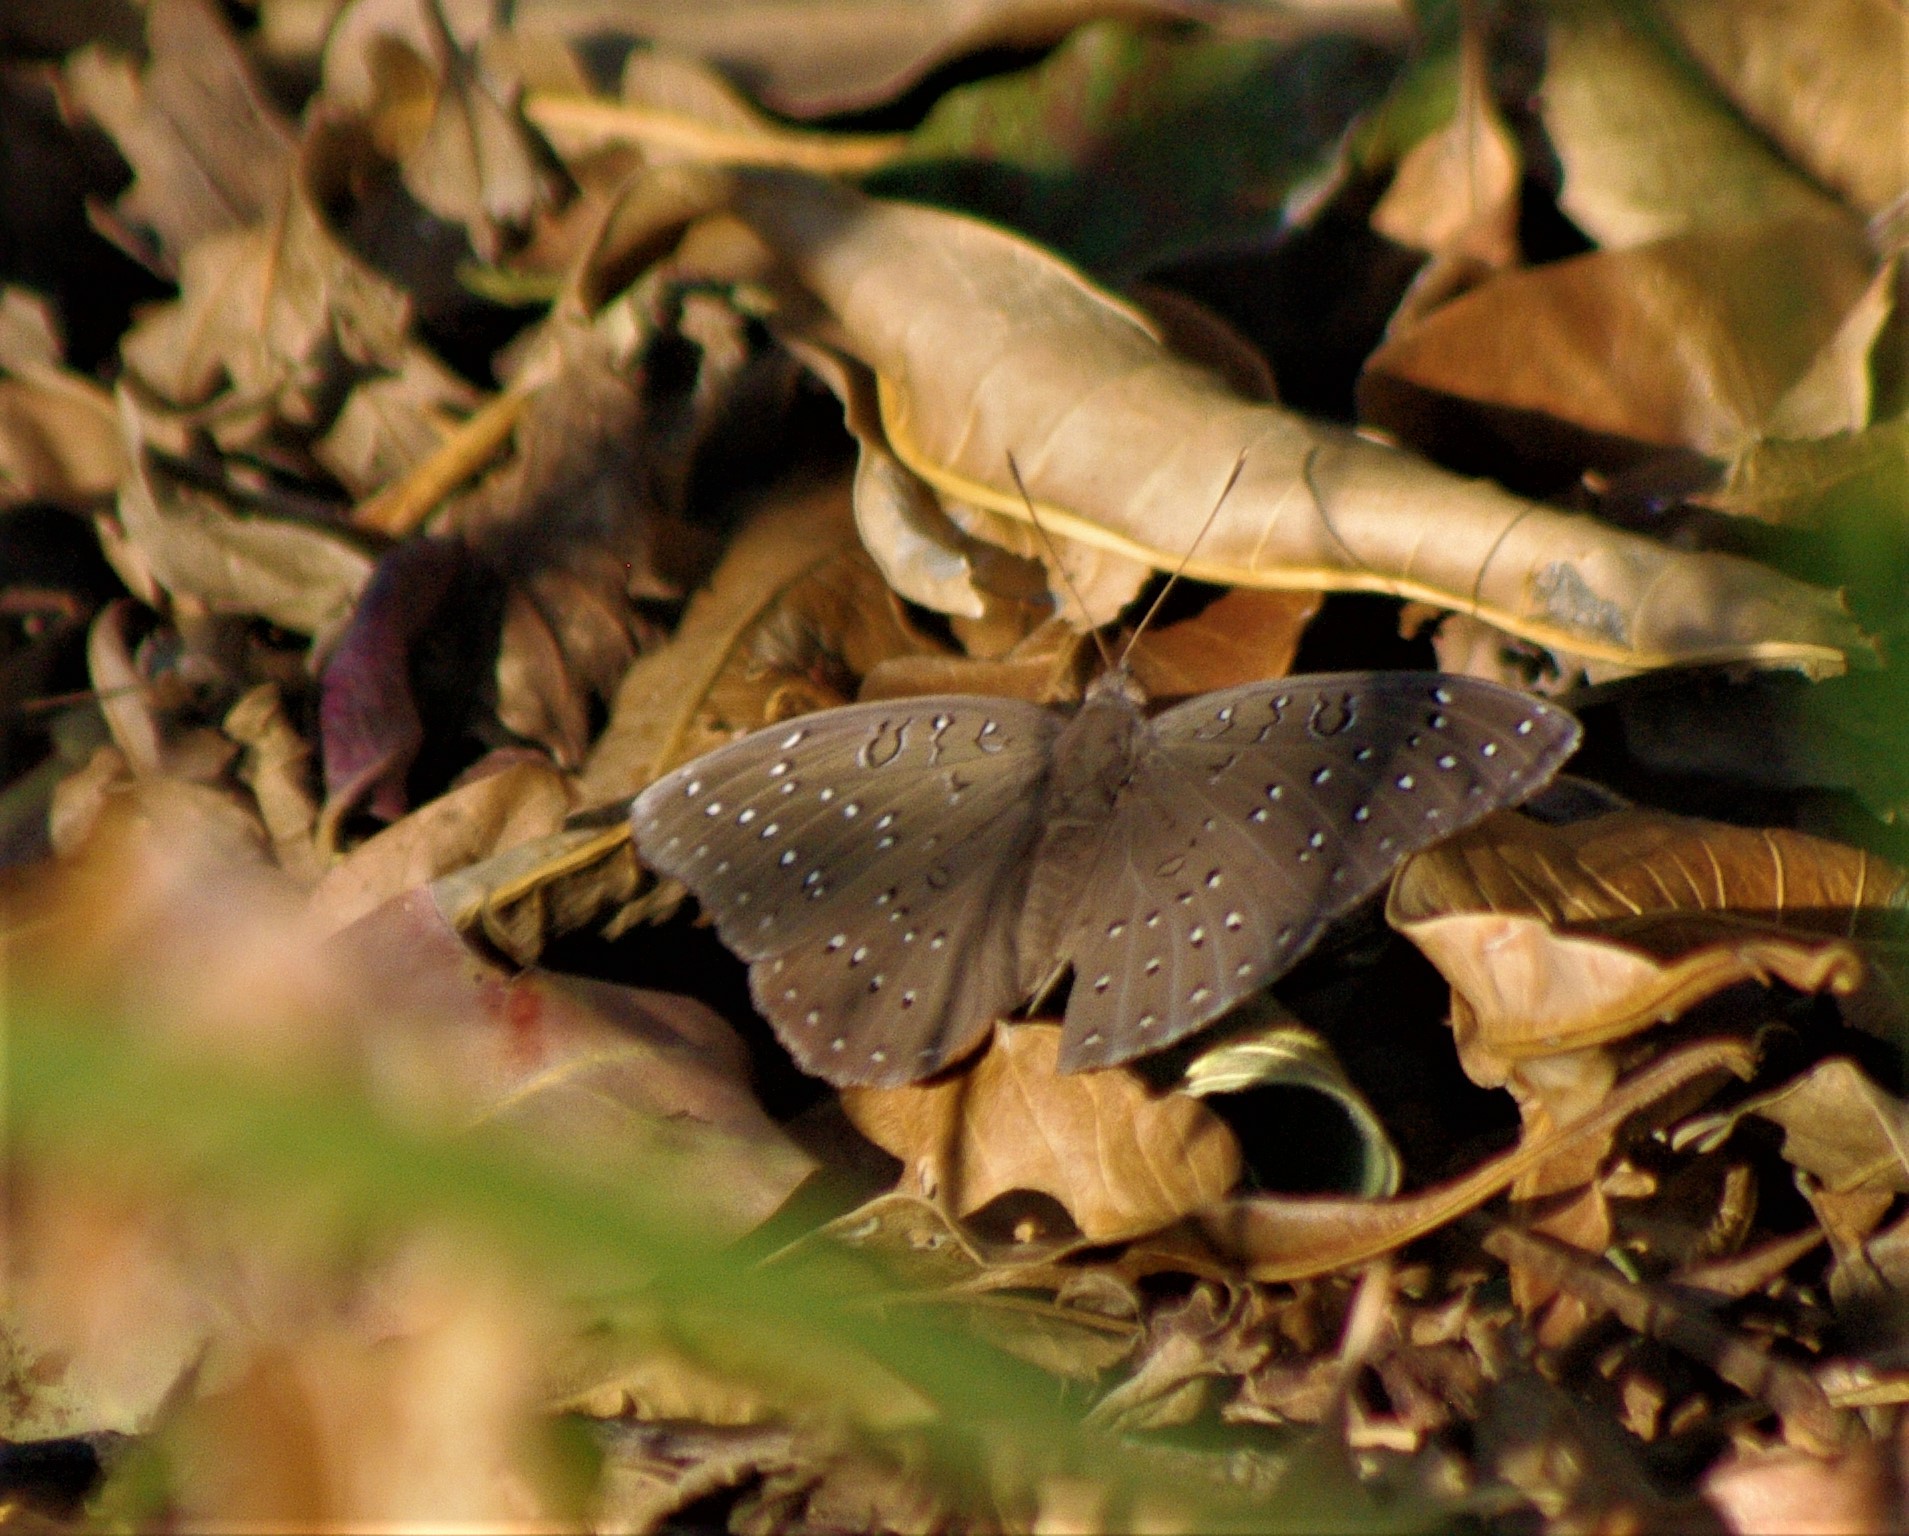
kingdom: Animalia
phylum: Arthropoda
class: Insecta
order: Lepidoptera
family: Nymphalidae
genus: Hamanumida
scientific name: Hamanumida daedalus
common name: Guinea-fowl butterfly
